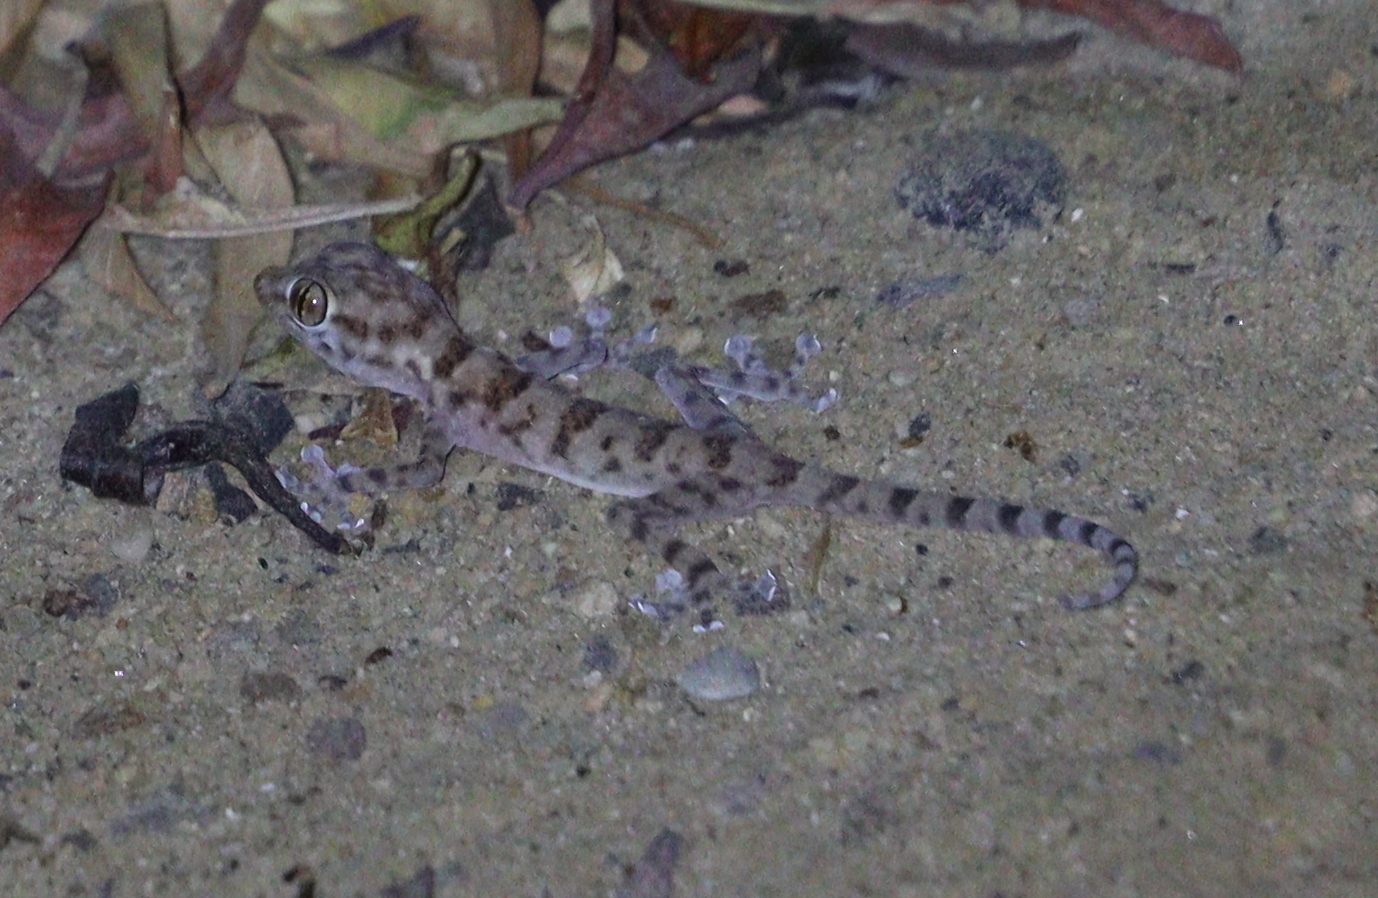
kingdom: Animalia
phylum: Chordata
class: Squamata
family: Phyllodactylidae
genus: Ptyodactylus
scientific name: Ptyodactylus hasselquistii
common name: Hasselquist’s fan-footed gecko
